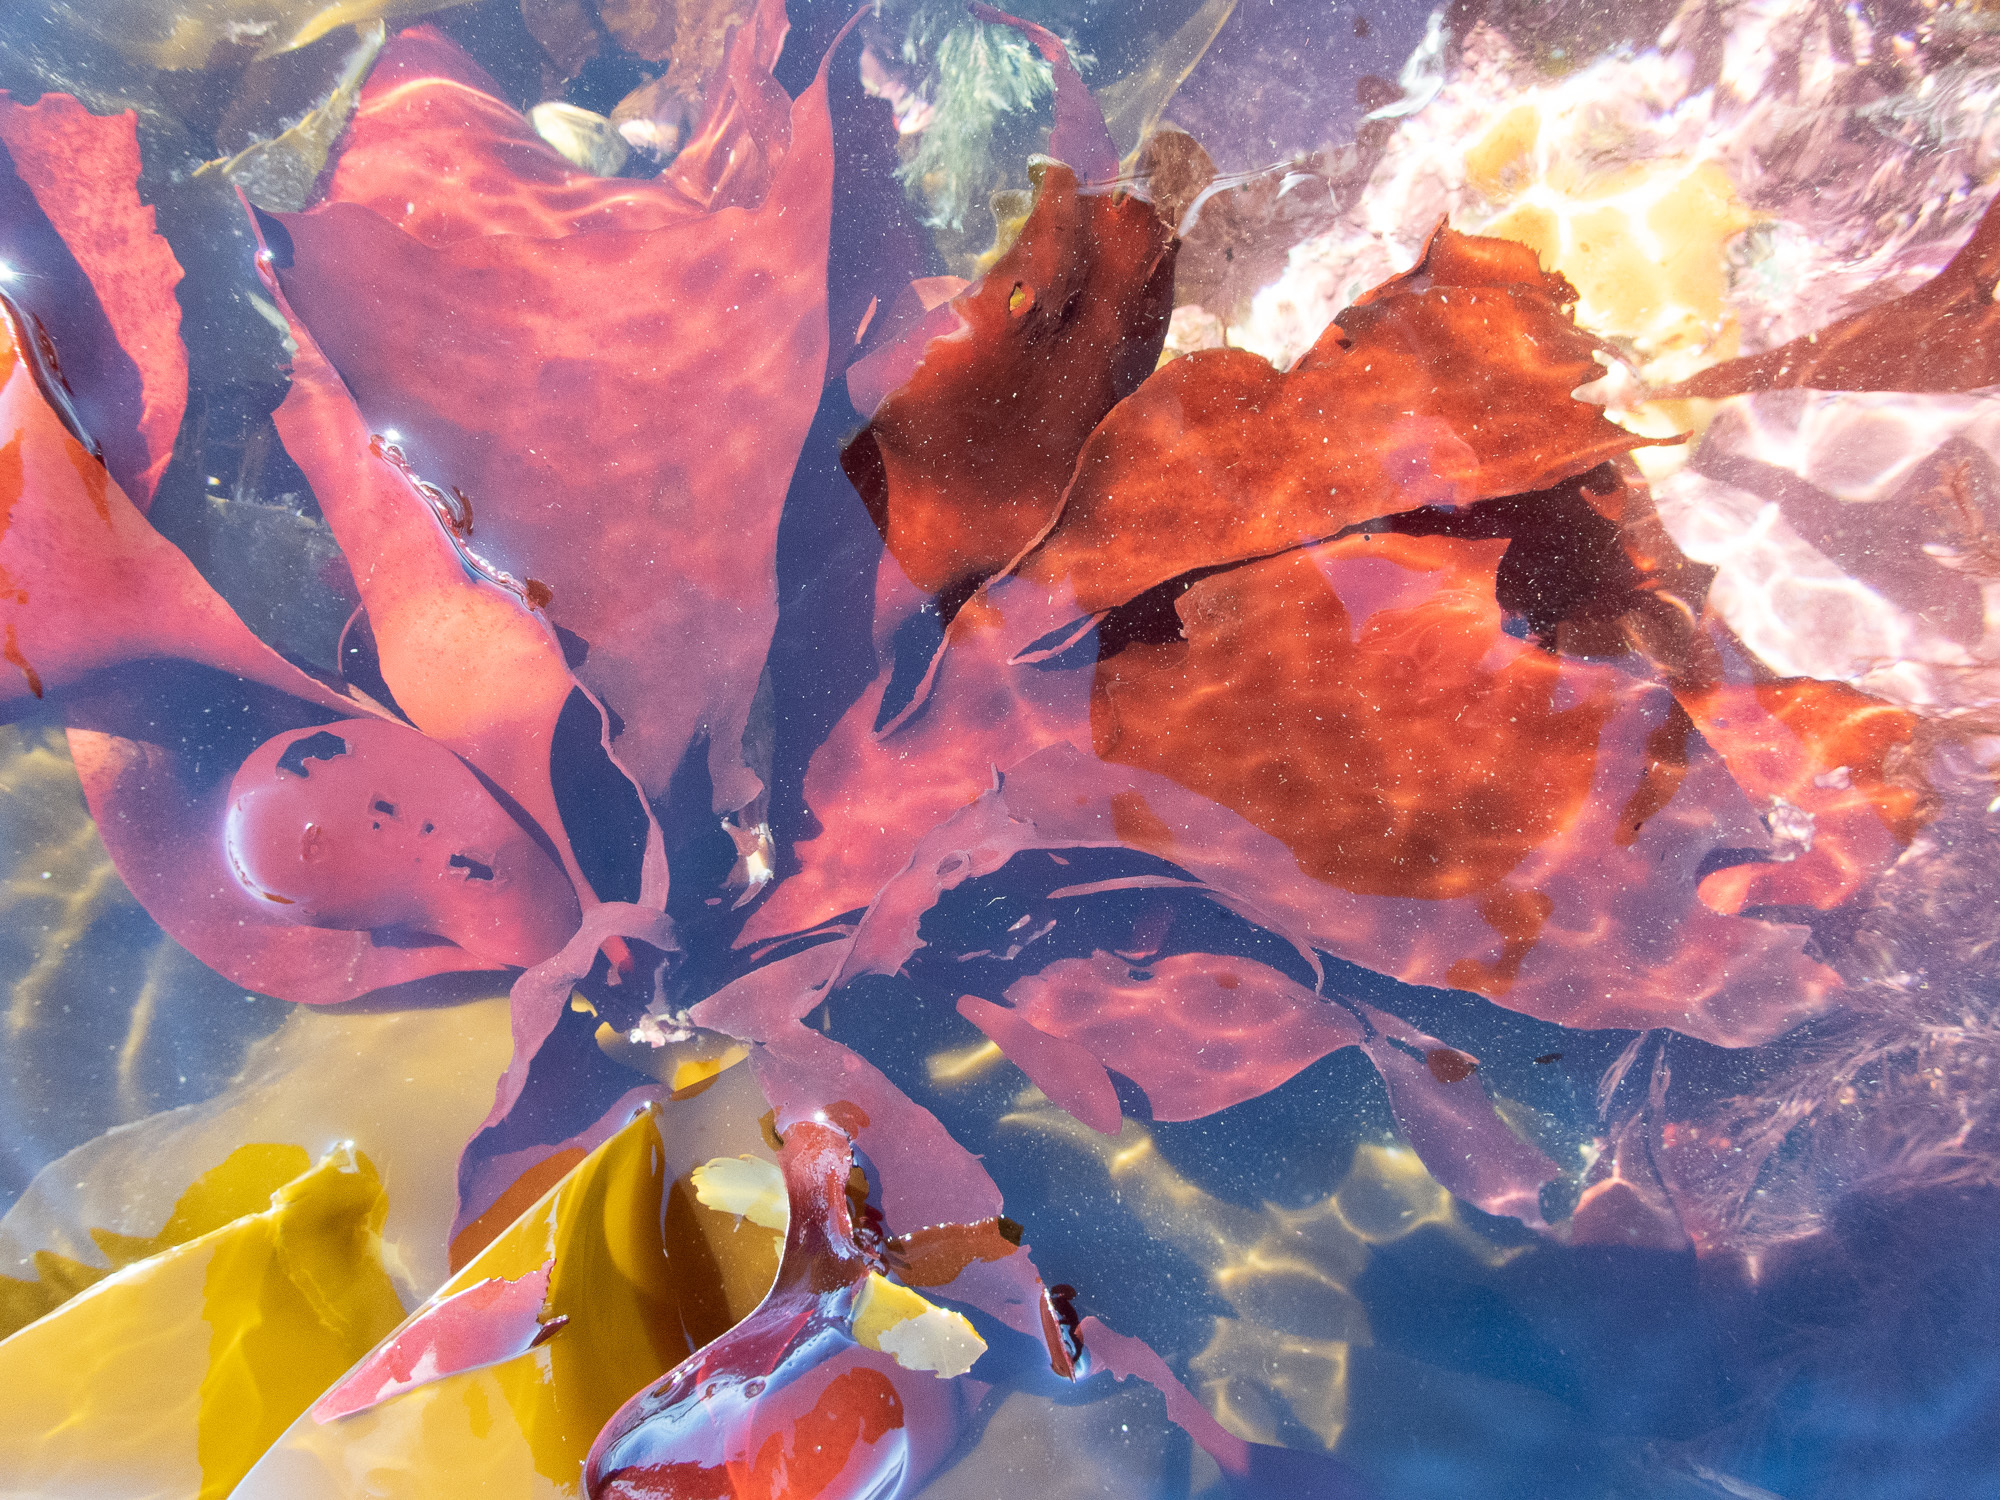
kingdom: Plantae
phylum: Rhodophyta
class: Florideophyceae
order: Gigartinales
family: Dumontiaceae
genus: Dilsea
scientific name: Dilsea carnosa
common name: Red rags
